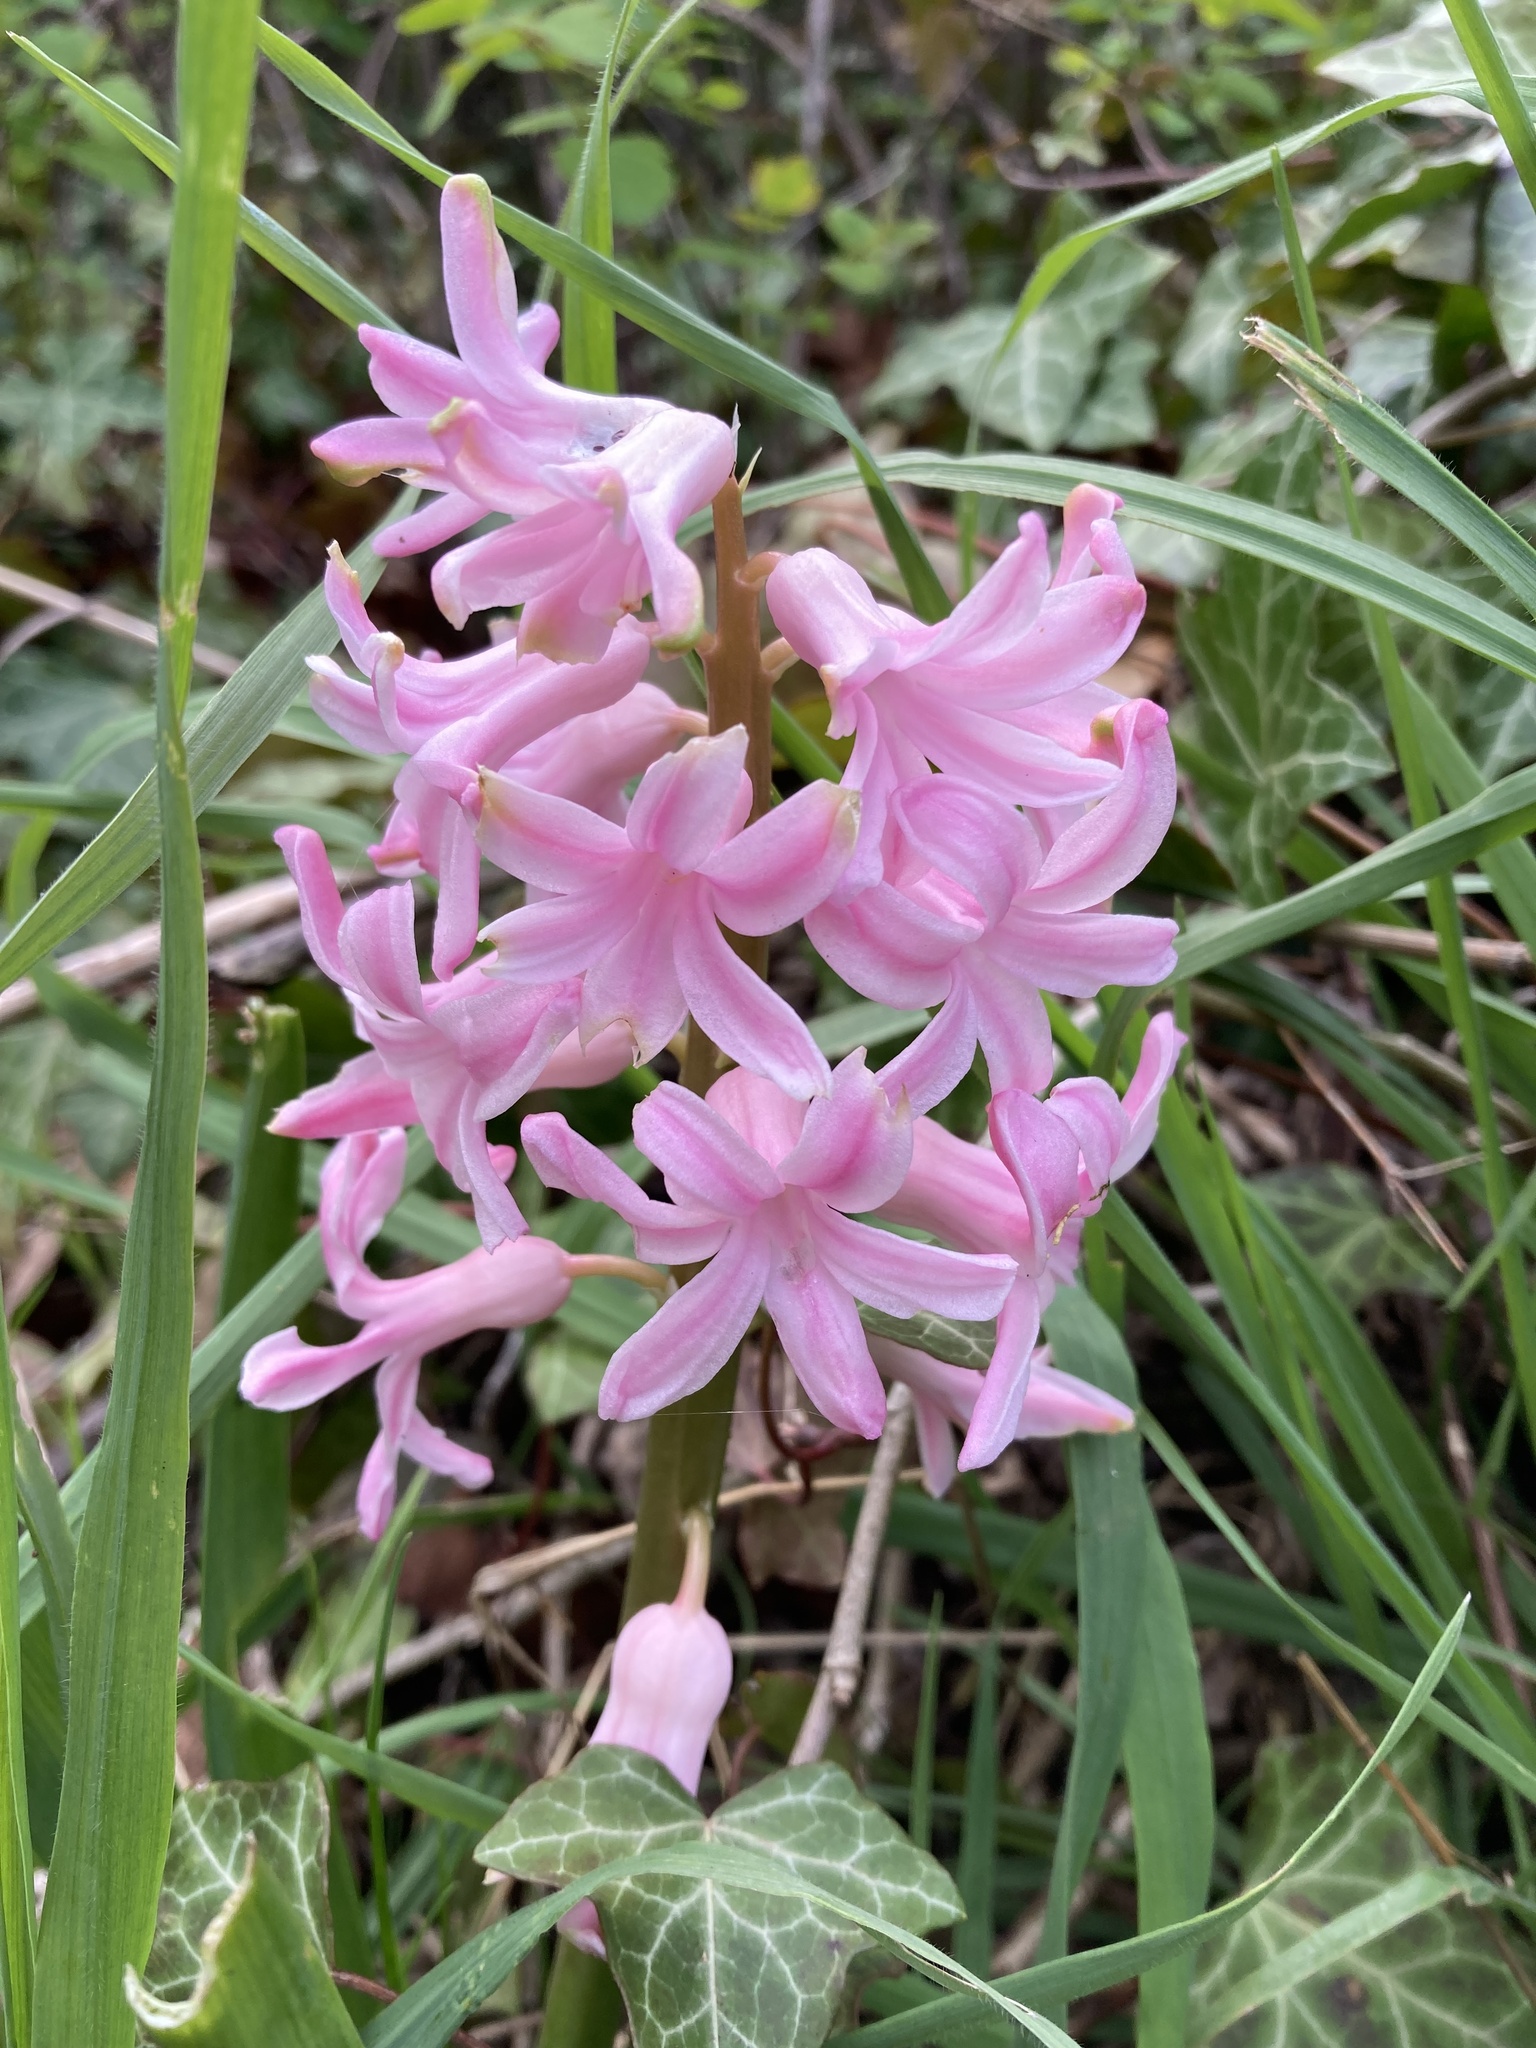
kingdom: Plantae
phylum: Tracheophyta
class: Liliopsida
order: Asparagales
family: Asparagaceae
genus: Hyacinthus
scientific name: Hyacinthus orientalis
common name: Hyacinth
